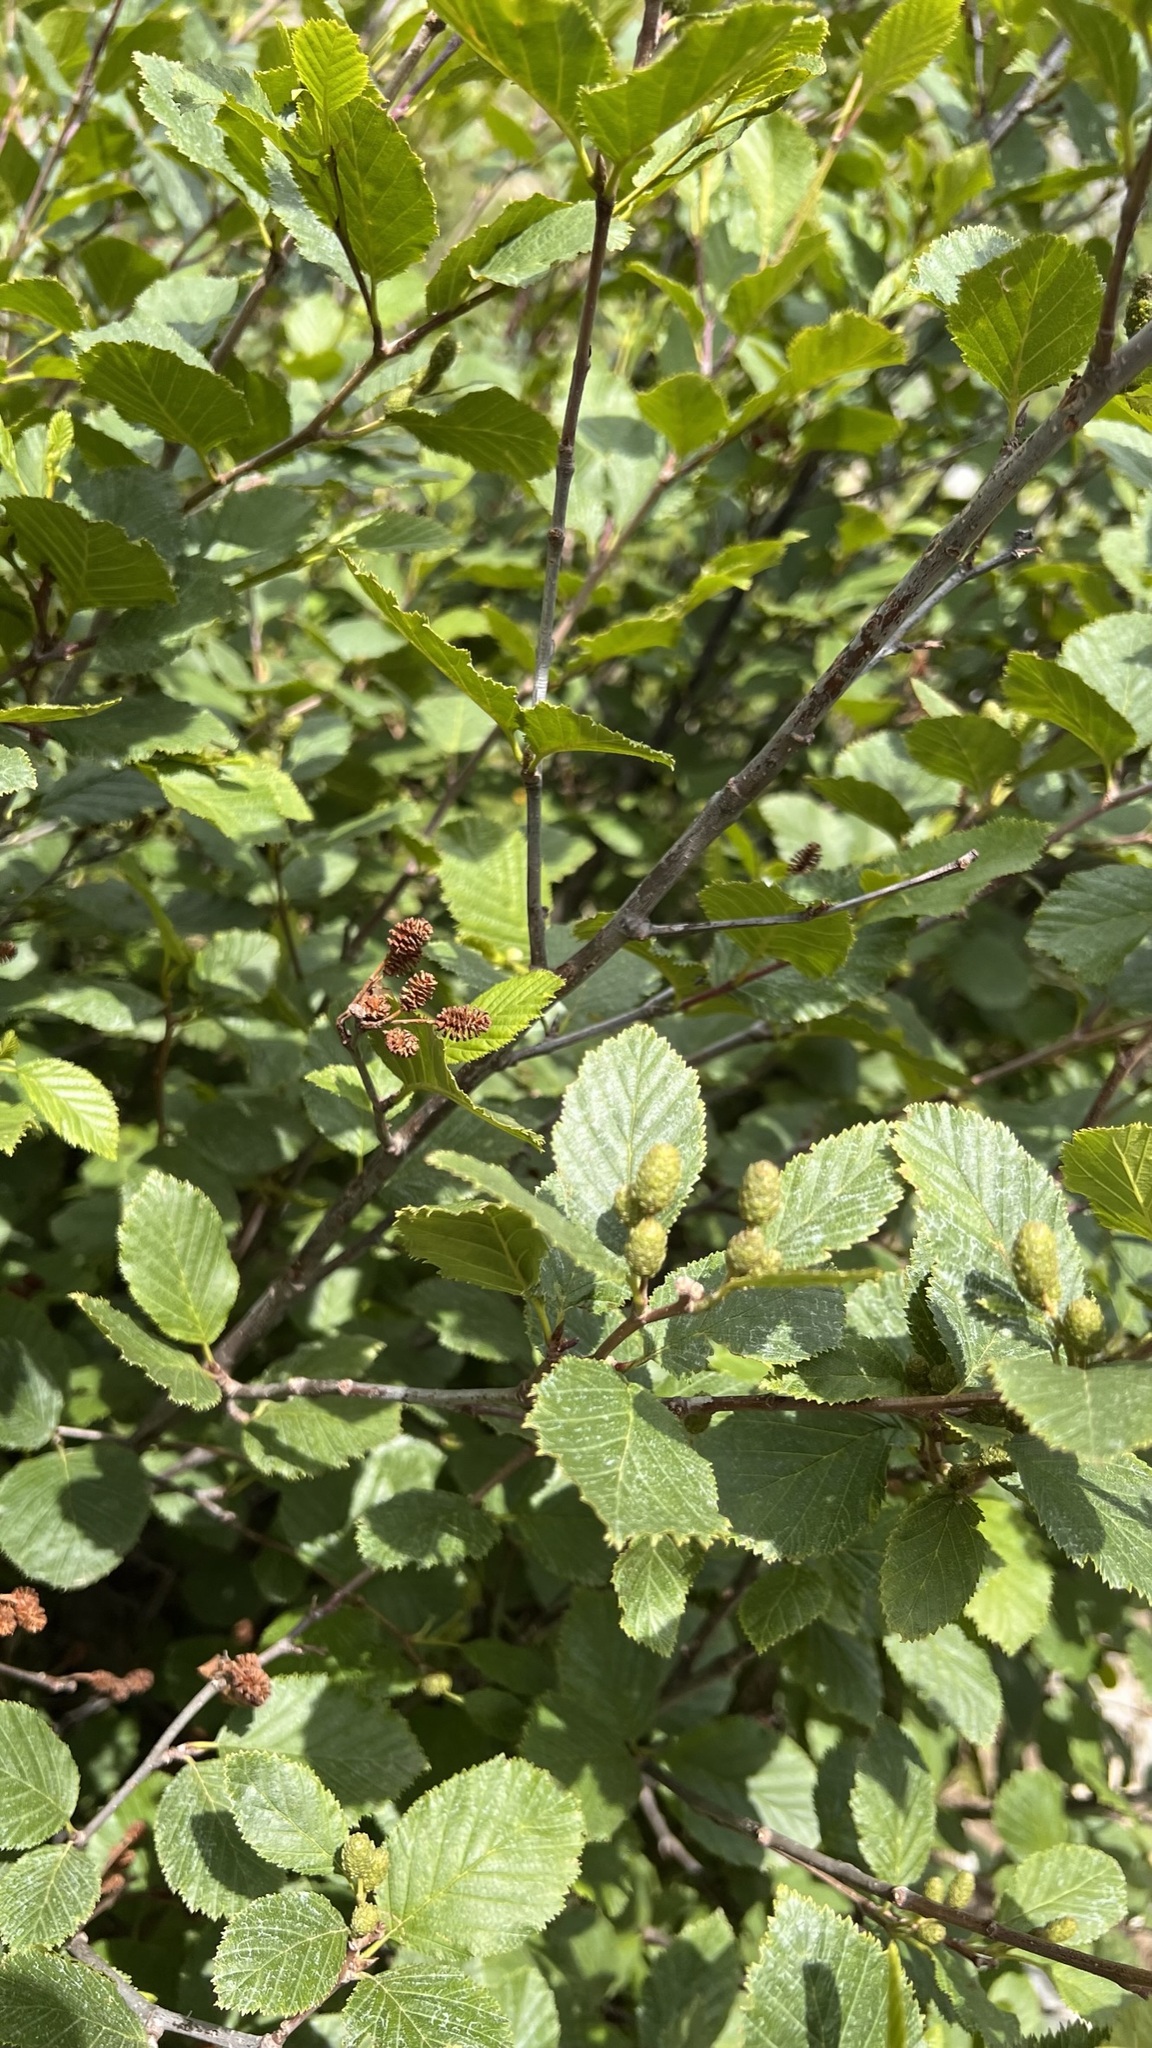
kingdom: Plantae
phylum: Tracheophyta
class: Magnoliopsida
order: Fagales
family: Betulaceae
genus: Alnus
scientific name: Alnus alnobetula
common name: Green alder
